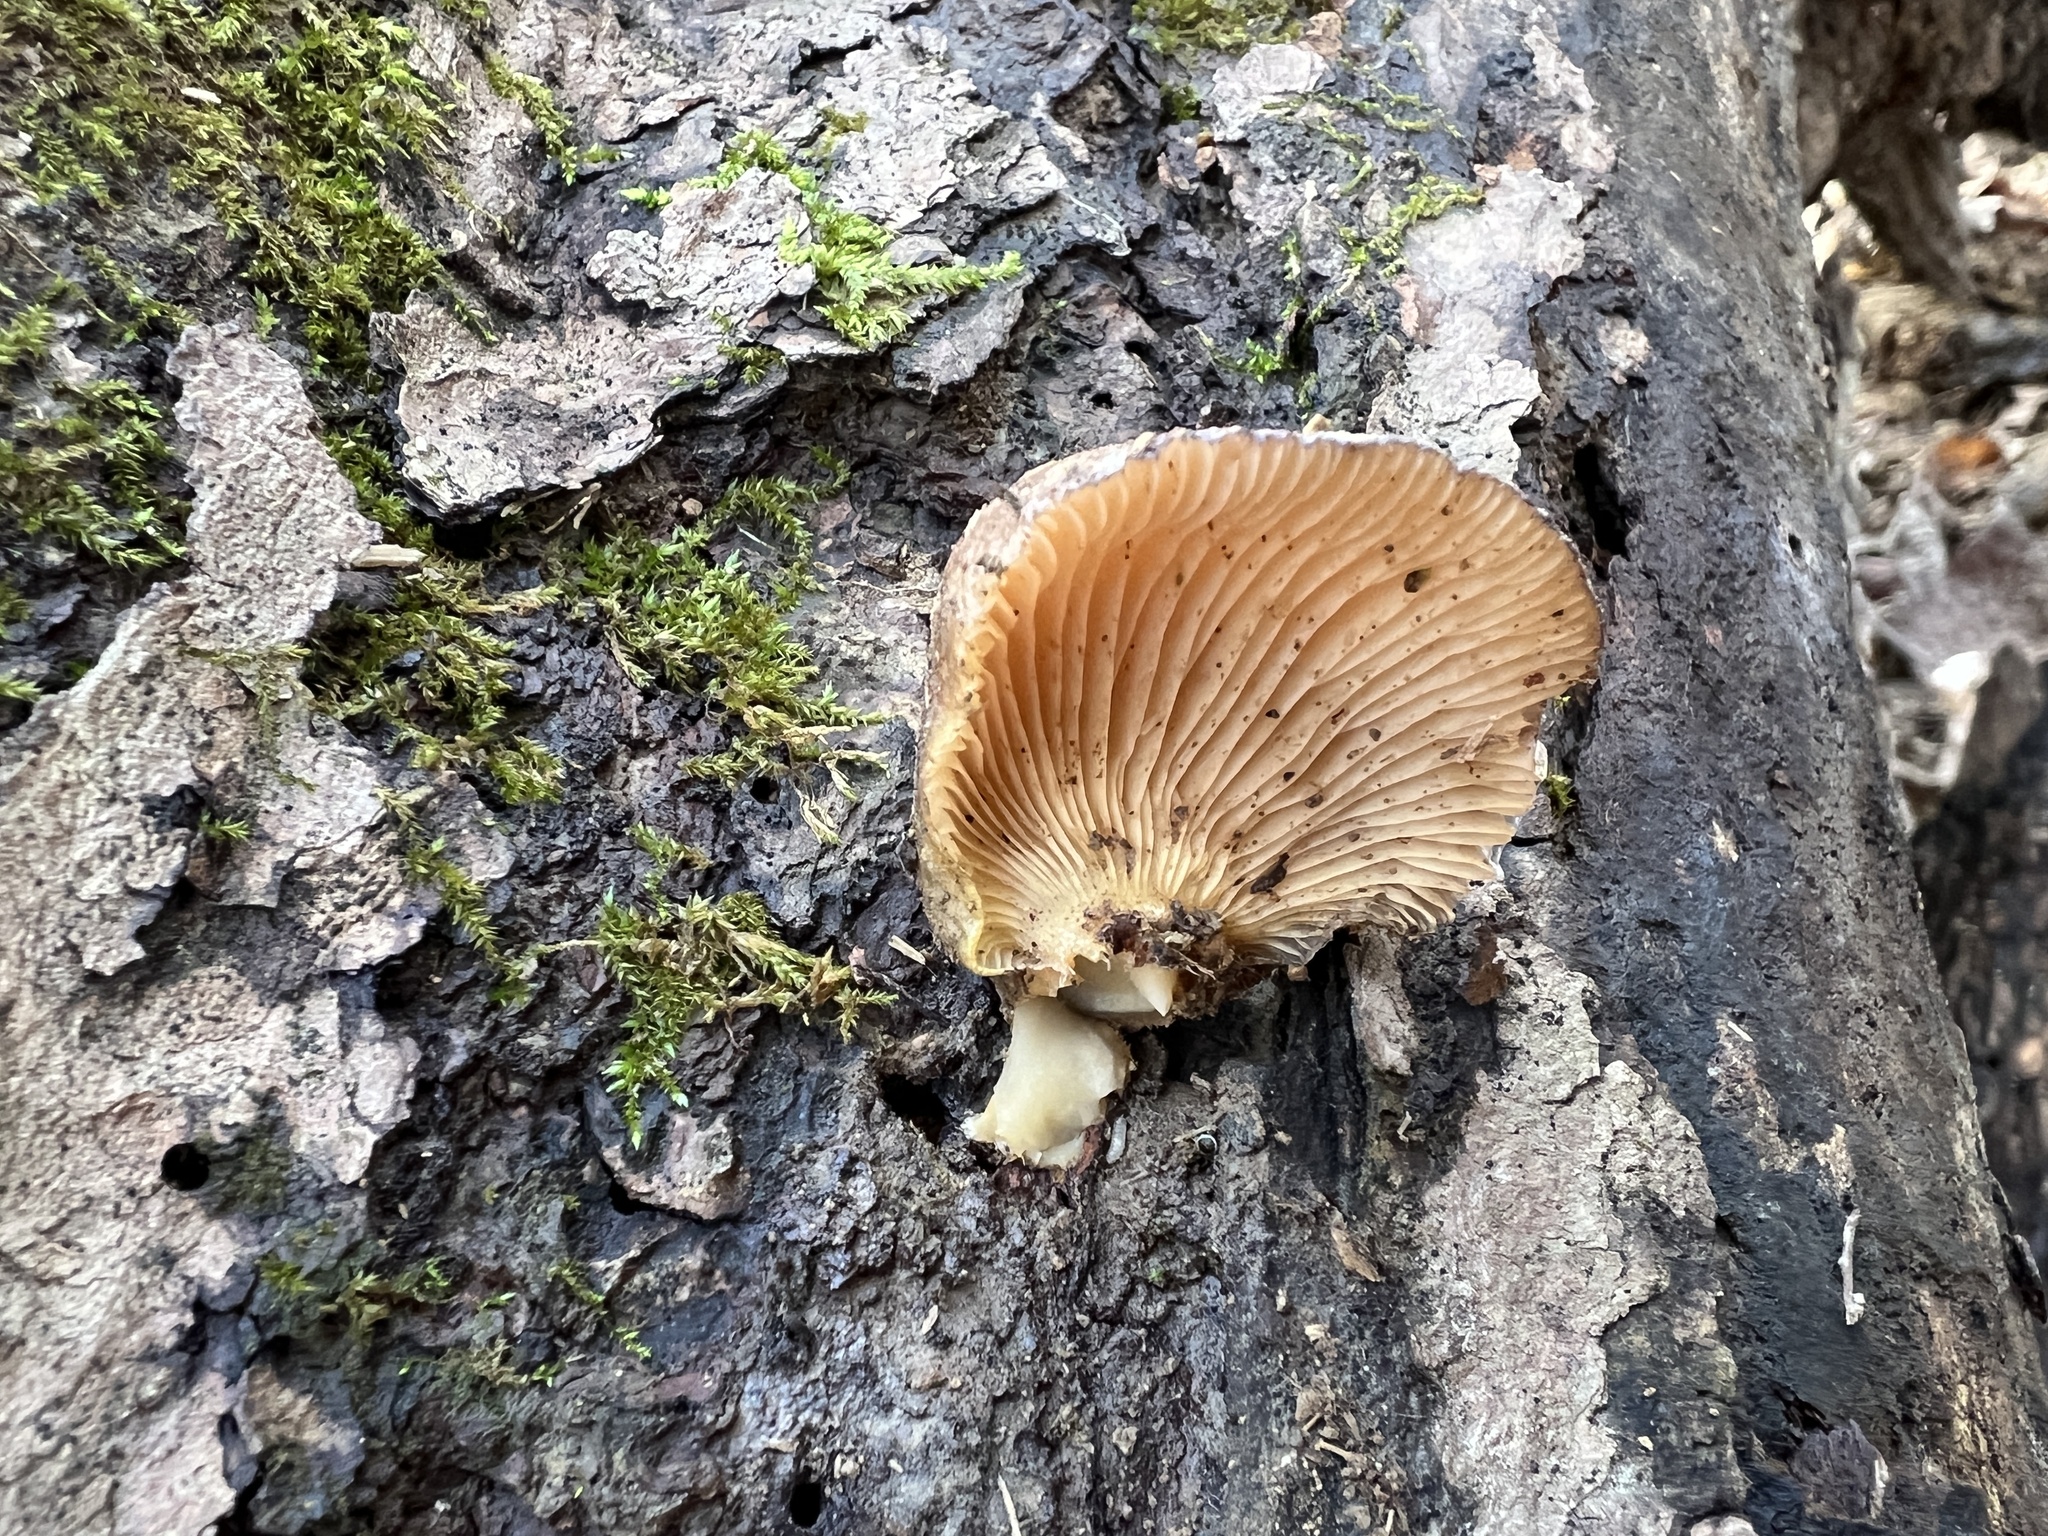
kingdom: Fungi
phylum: Basidiomycota
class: Agaricomycetes
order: Agaricales
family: Sarcomyxaceae
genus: Sarcomyxa
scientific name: Sarcomyxa serotina
